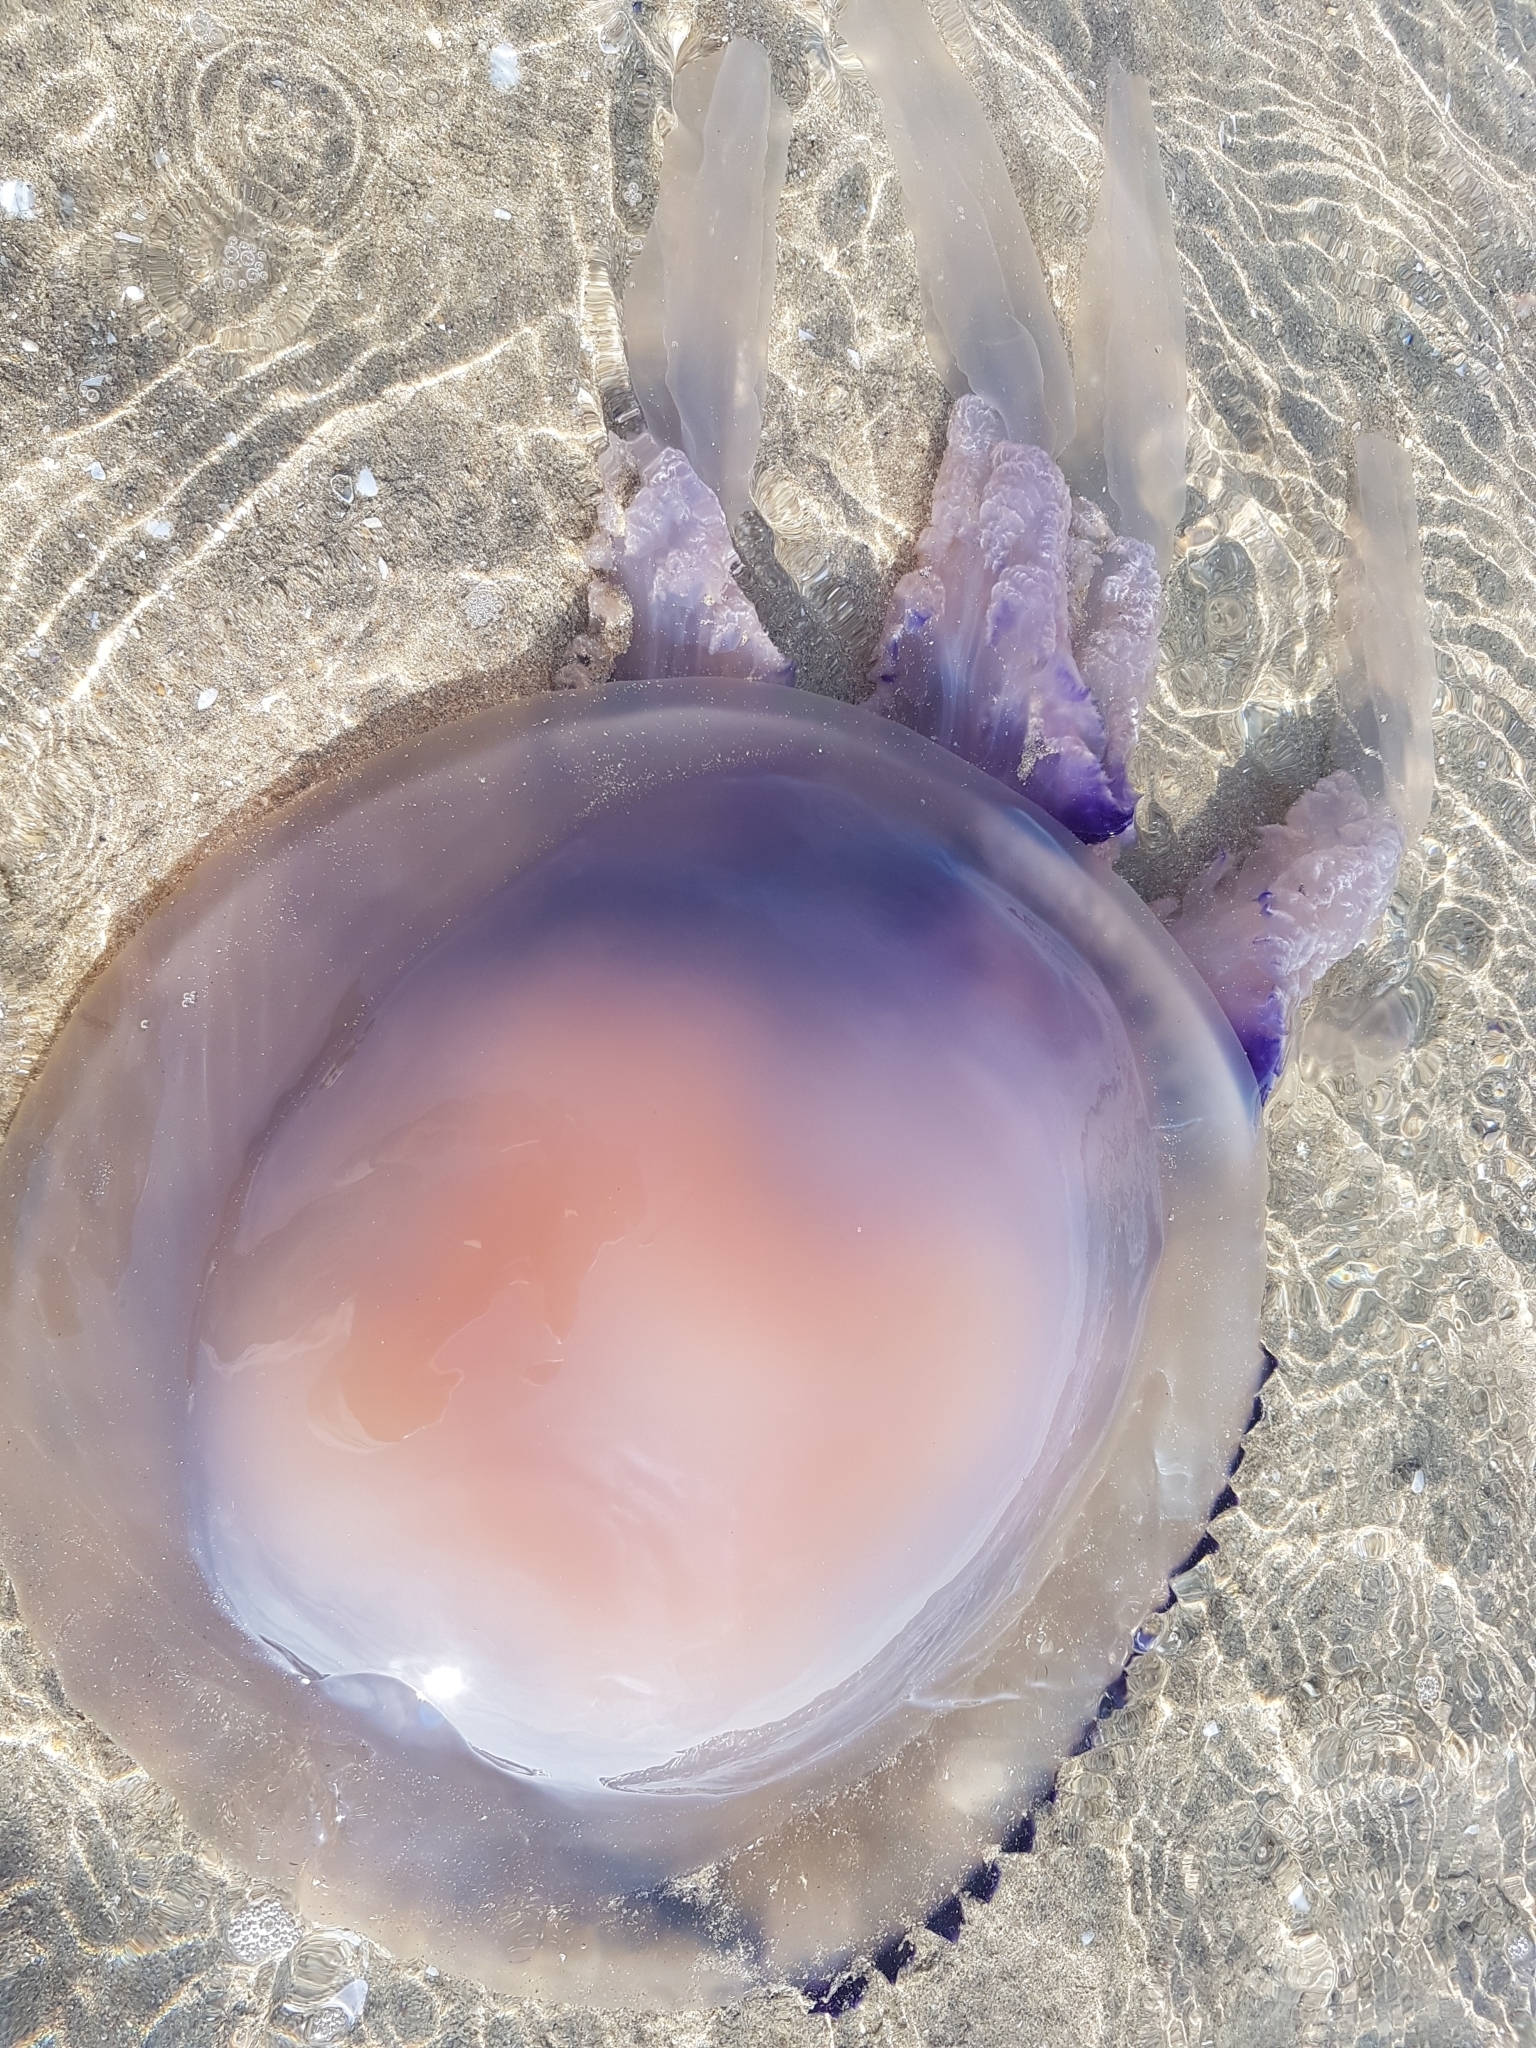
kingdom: Animalia
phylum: Cnidaria
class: Scyphozoa
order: Rhizostomeae
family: Rhizostomatidae
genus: Rhizostoma
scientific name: Rhizostoma pulmo
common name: Barrel jellyfish
